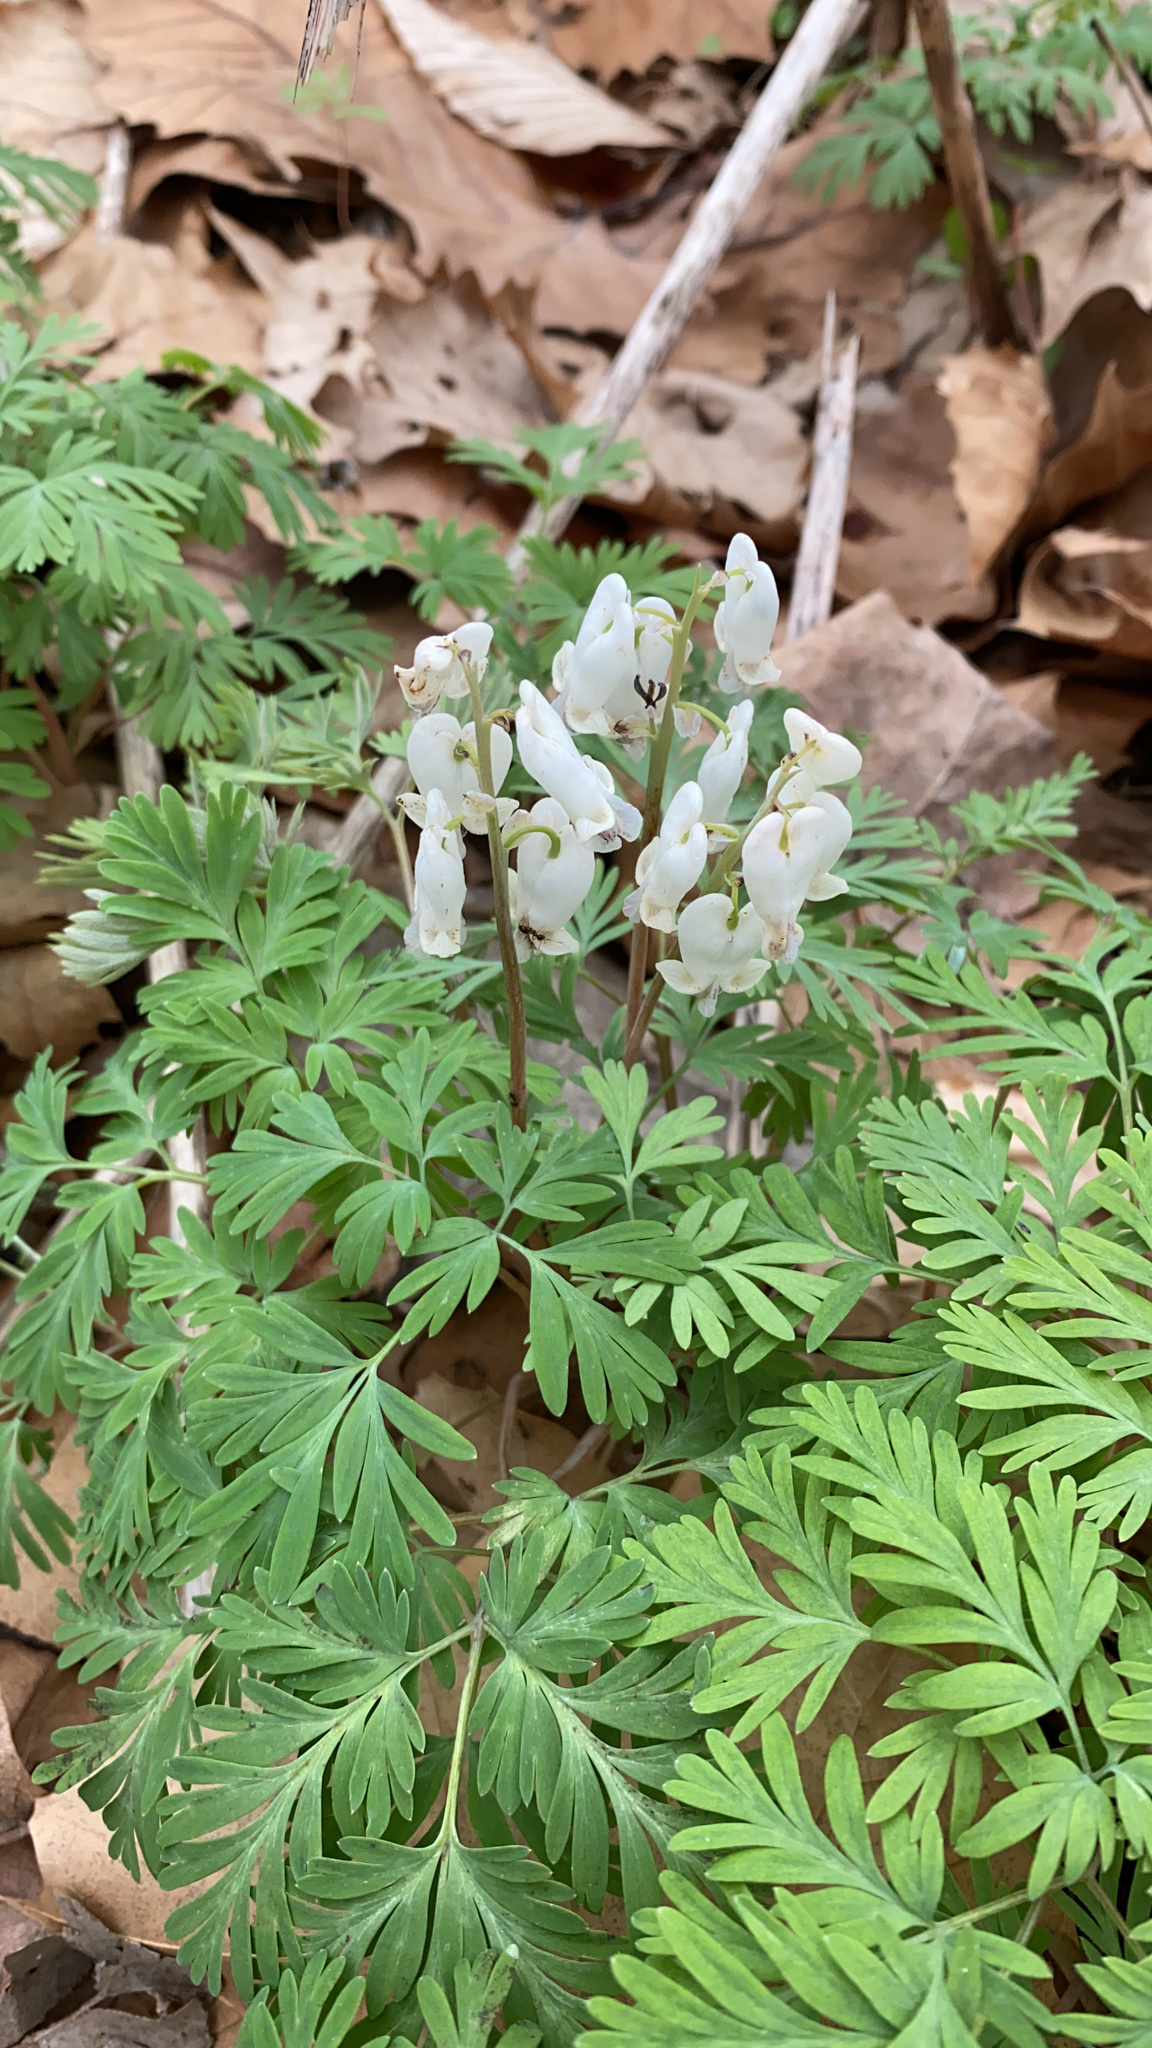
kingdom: Plantae
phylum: Tracheophyta
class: Magnoliopsida
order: Ranunculales
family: Papaveraceae
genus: Dicentra
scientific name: Dicentra canadensis
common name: Squirrel-corn
